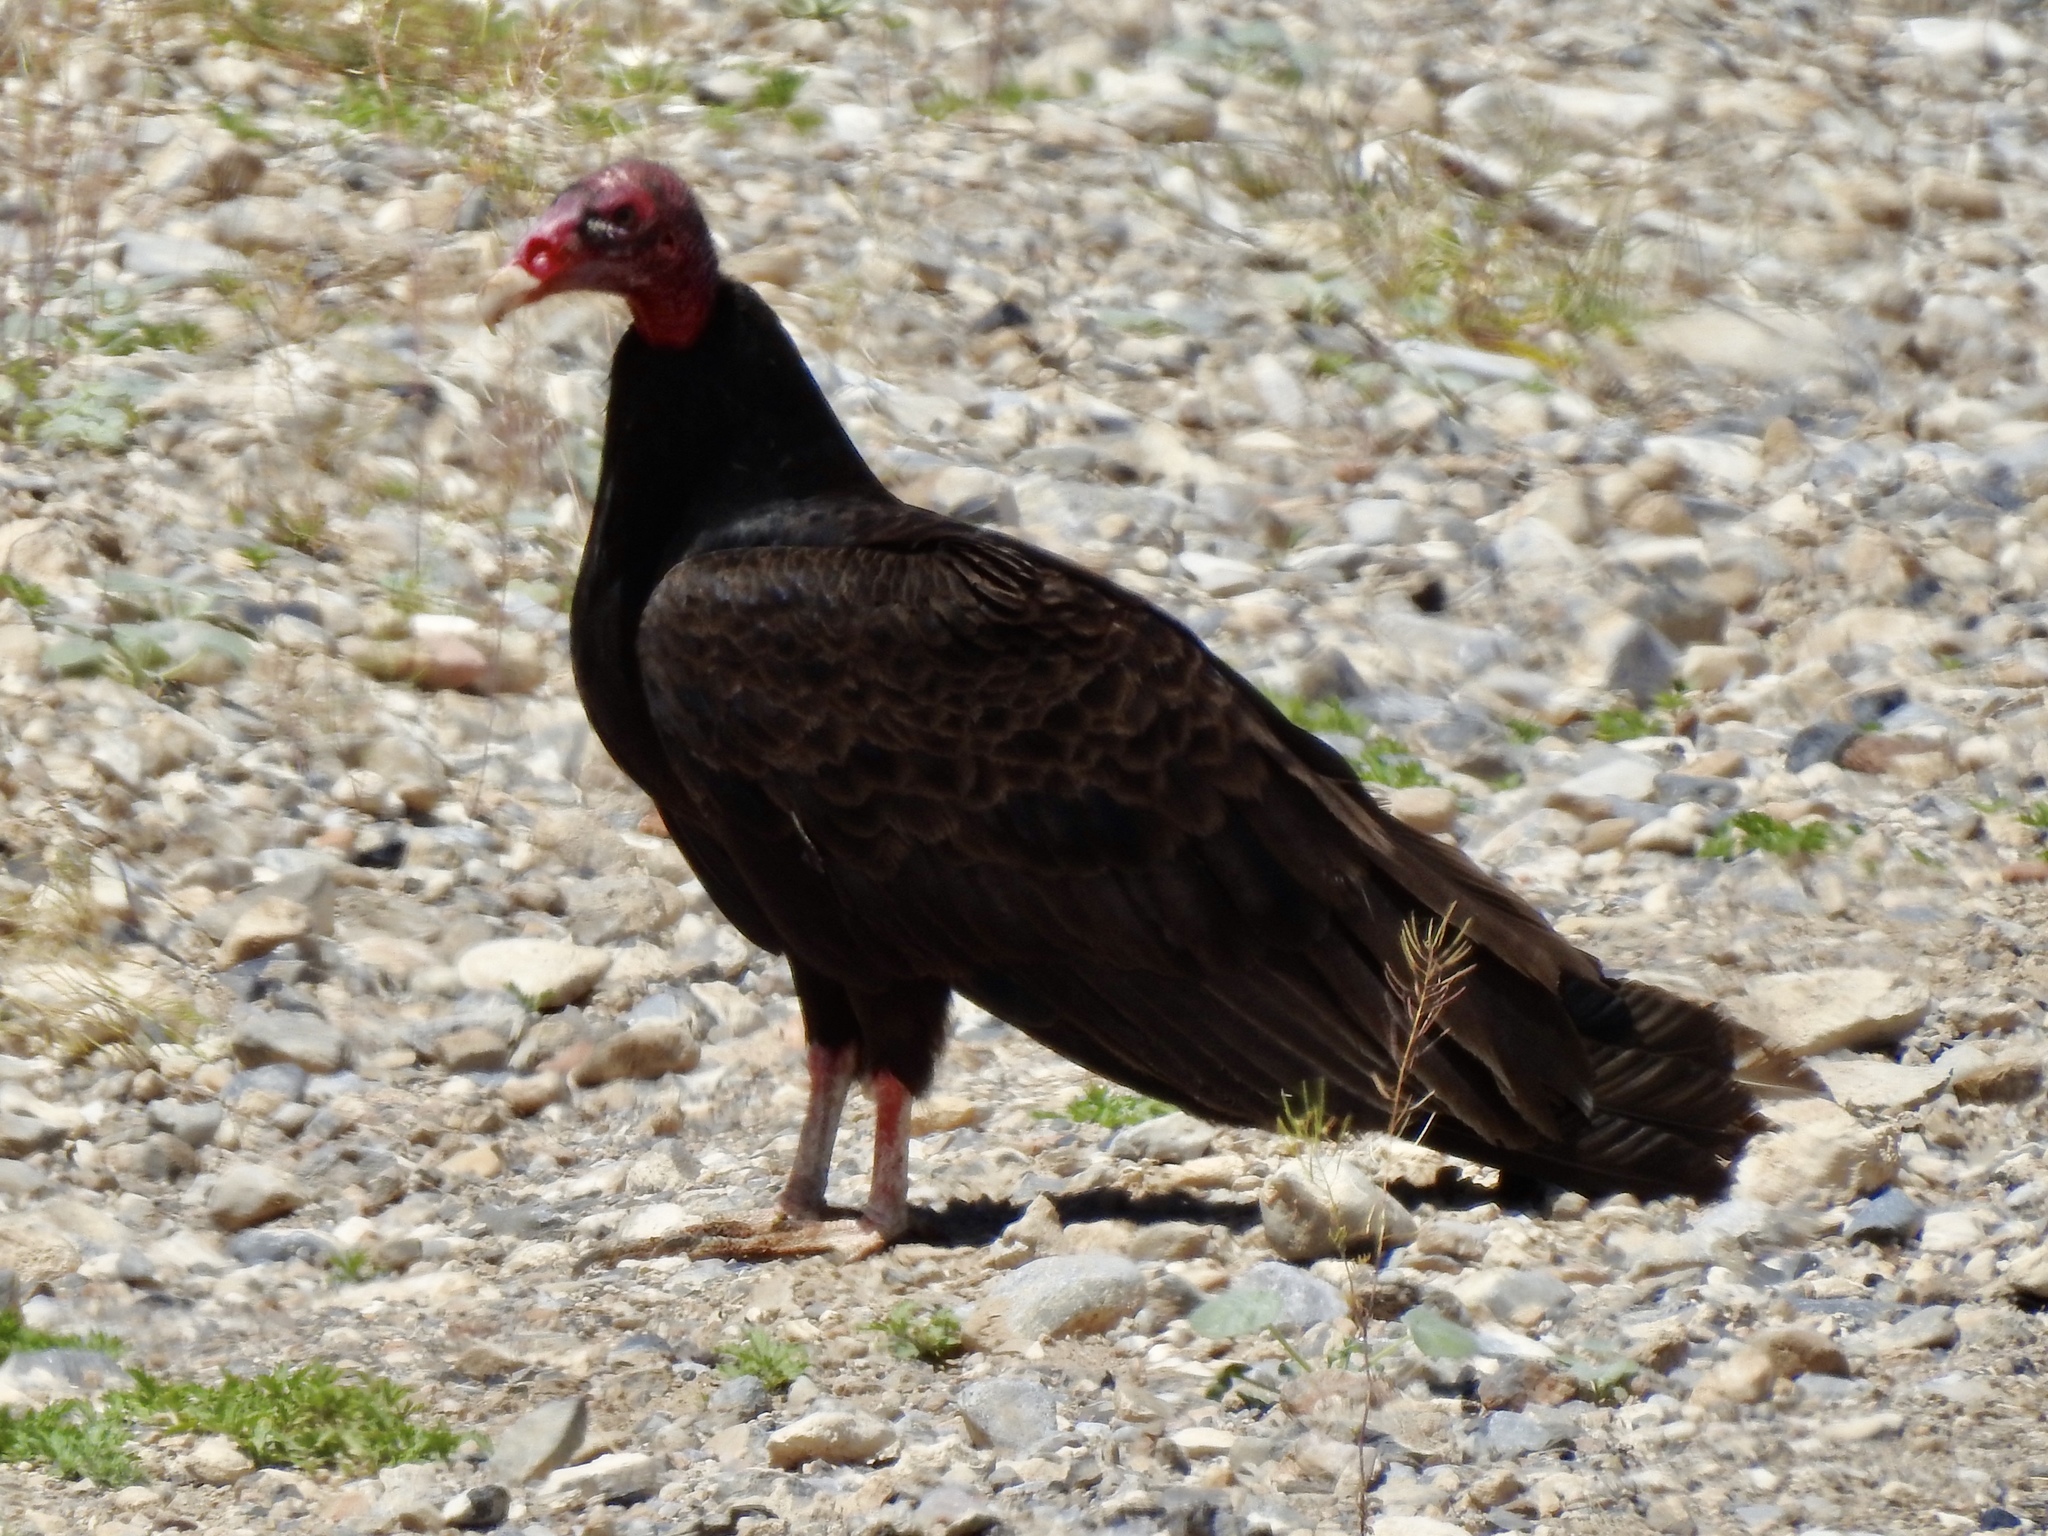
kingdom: Animalia
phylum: Chordata
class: Aves
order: Accipitriformes
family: Cathartidae
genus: Cathartes
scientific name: Cathartes aura
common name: Turkey vulture
